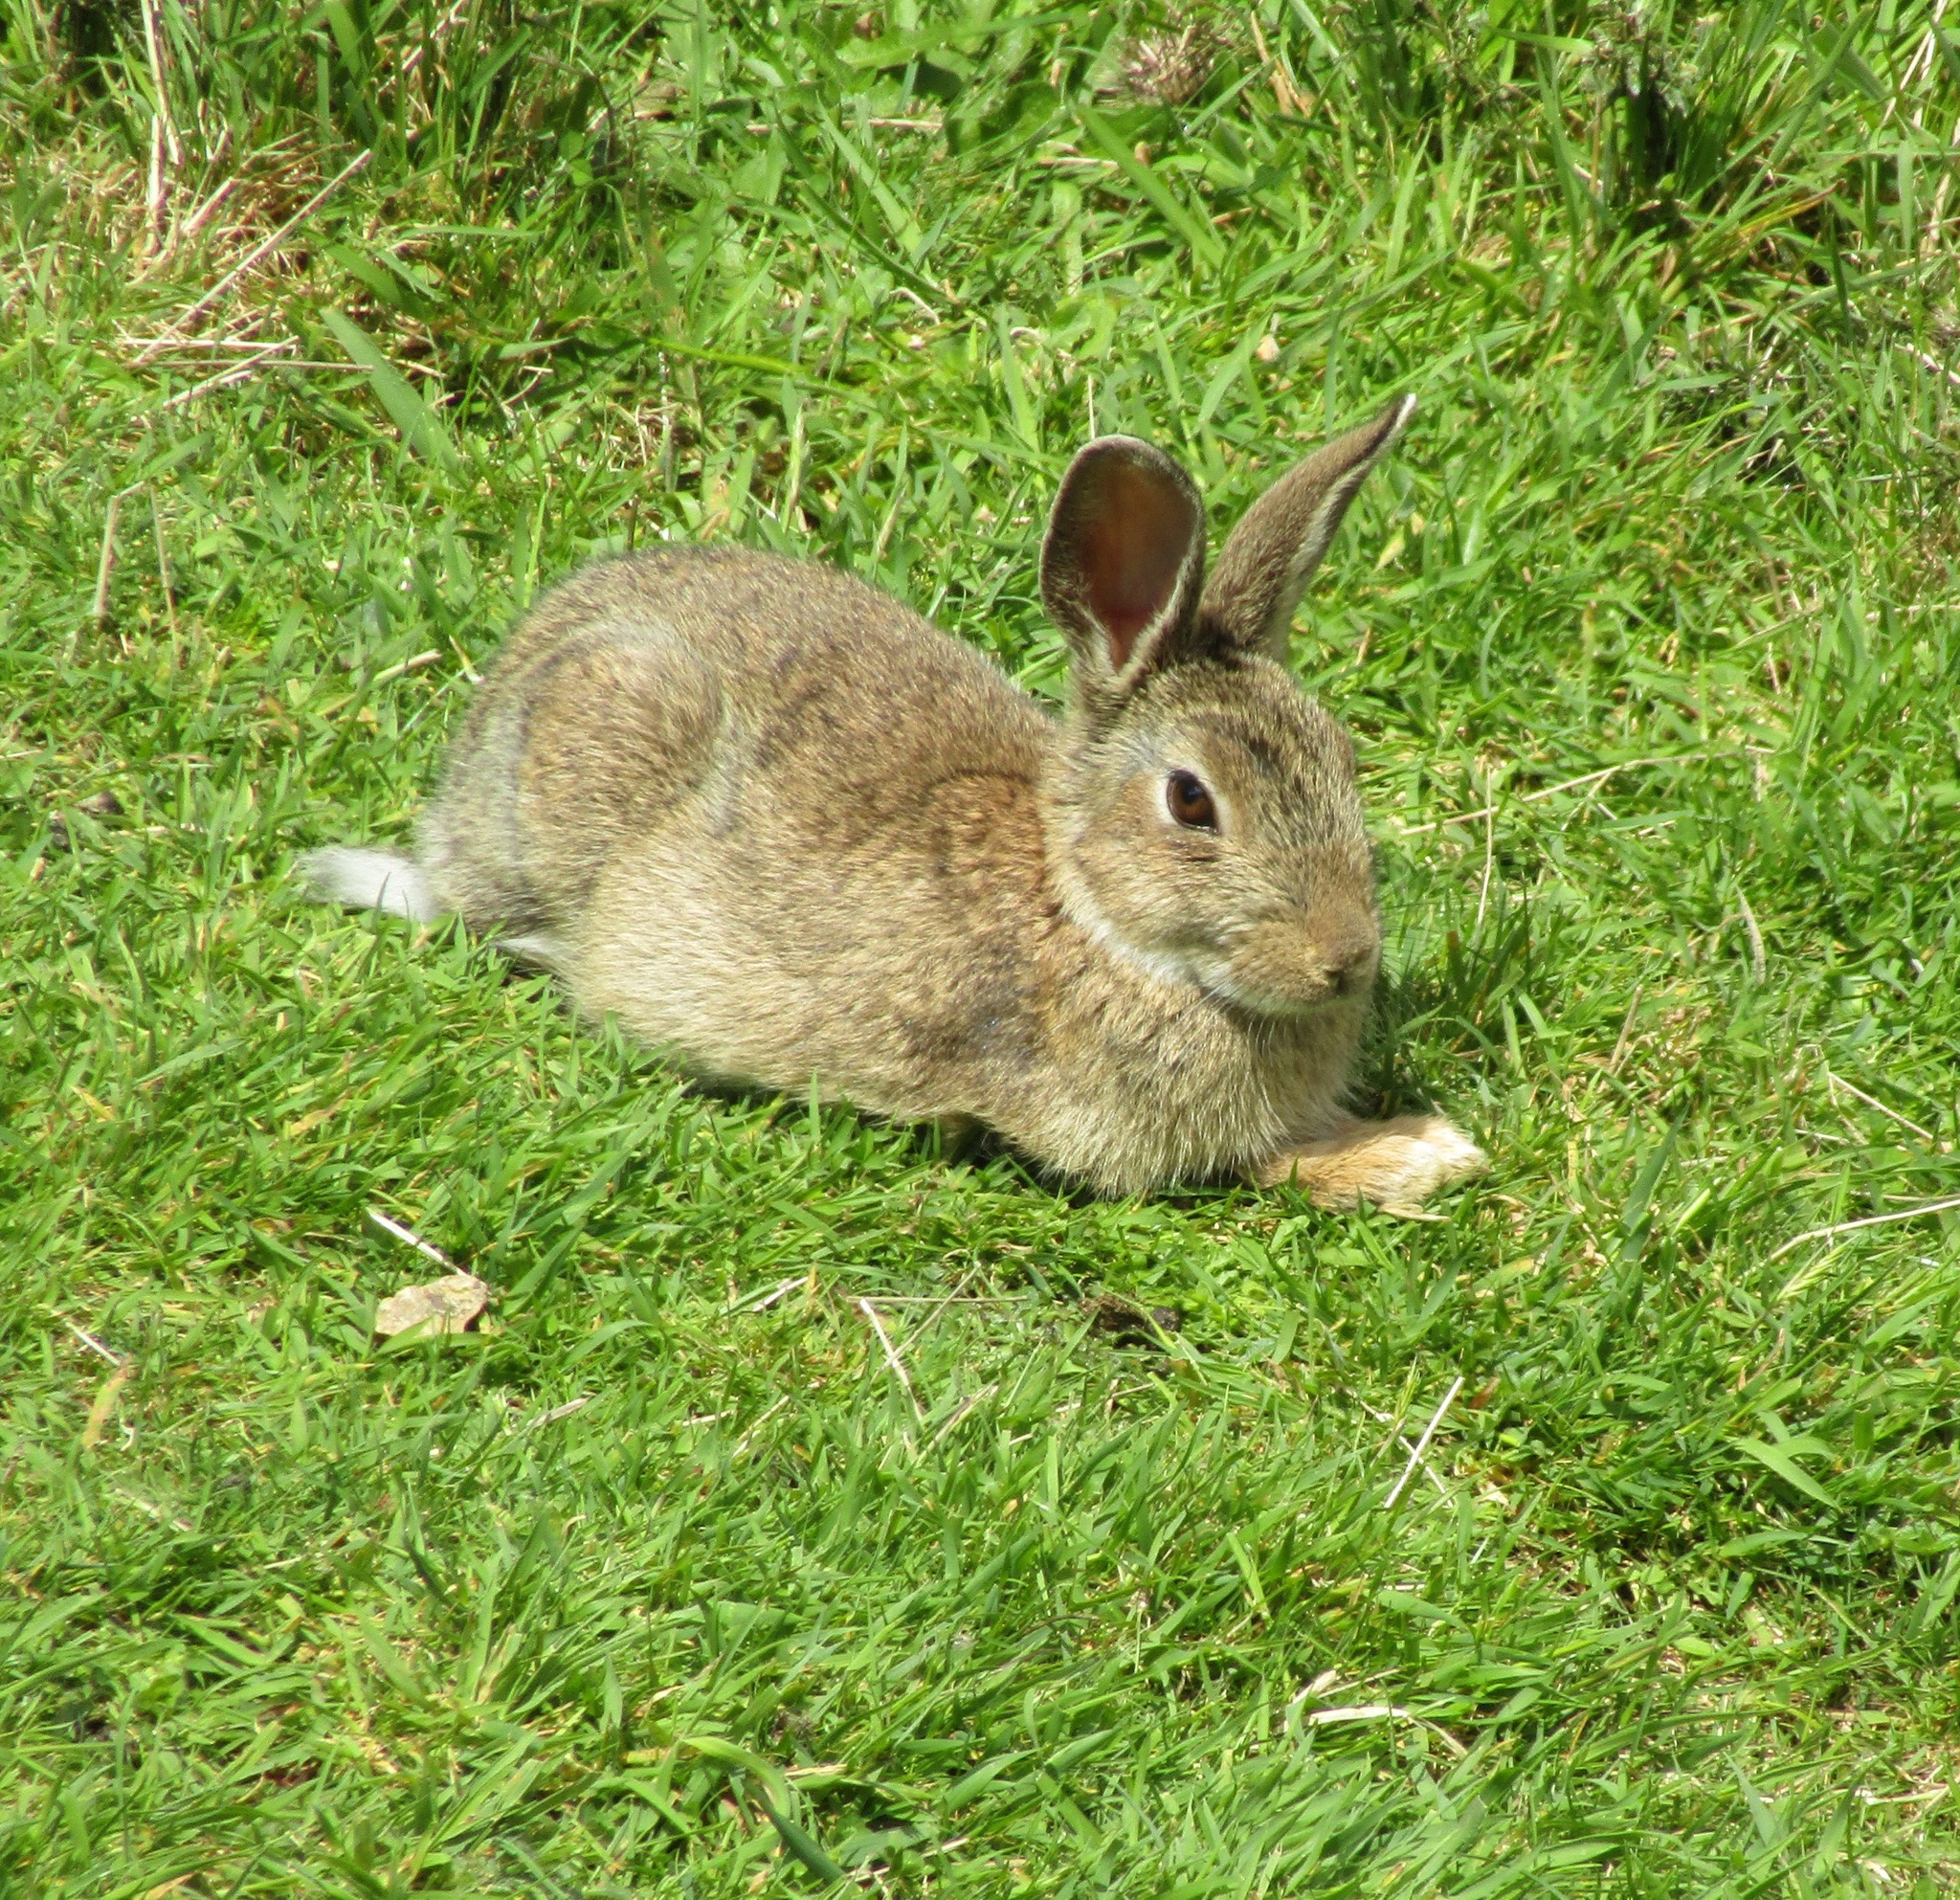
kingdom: Animalia
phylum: Chordata
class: Mammalia
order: Lagomorpha
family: Leporidae
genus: Oryctolagus
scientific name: Oryctolagus cuniculus
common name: European rabbit
